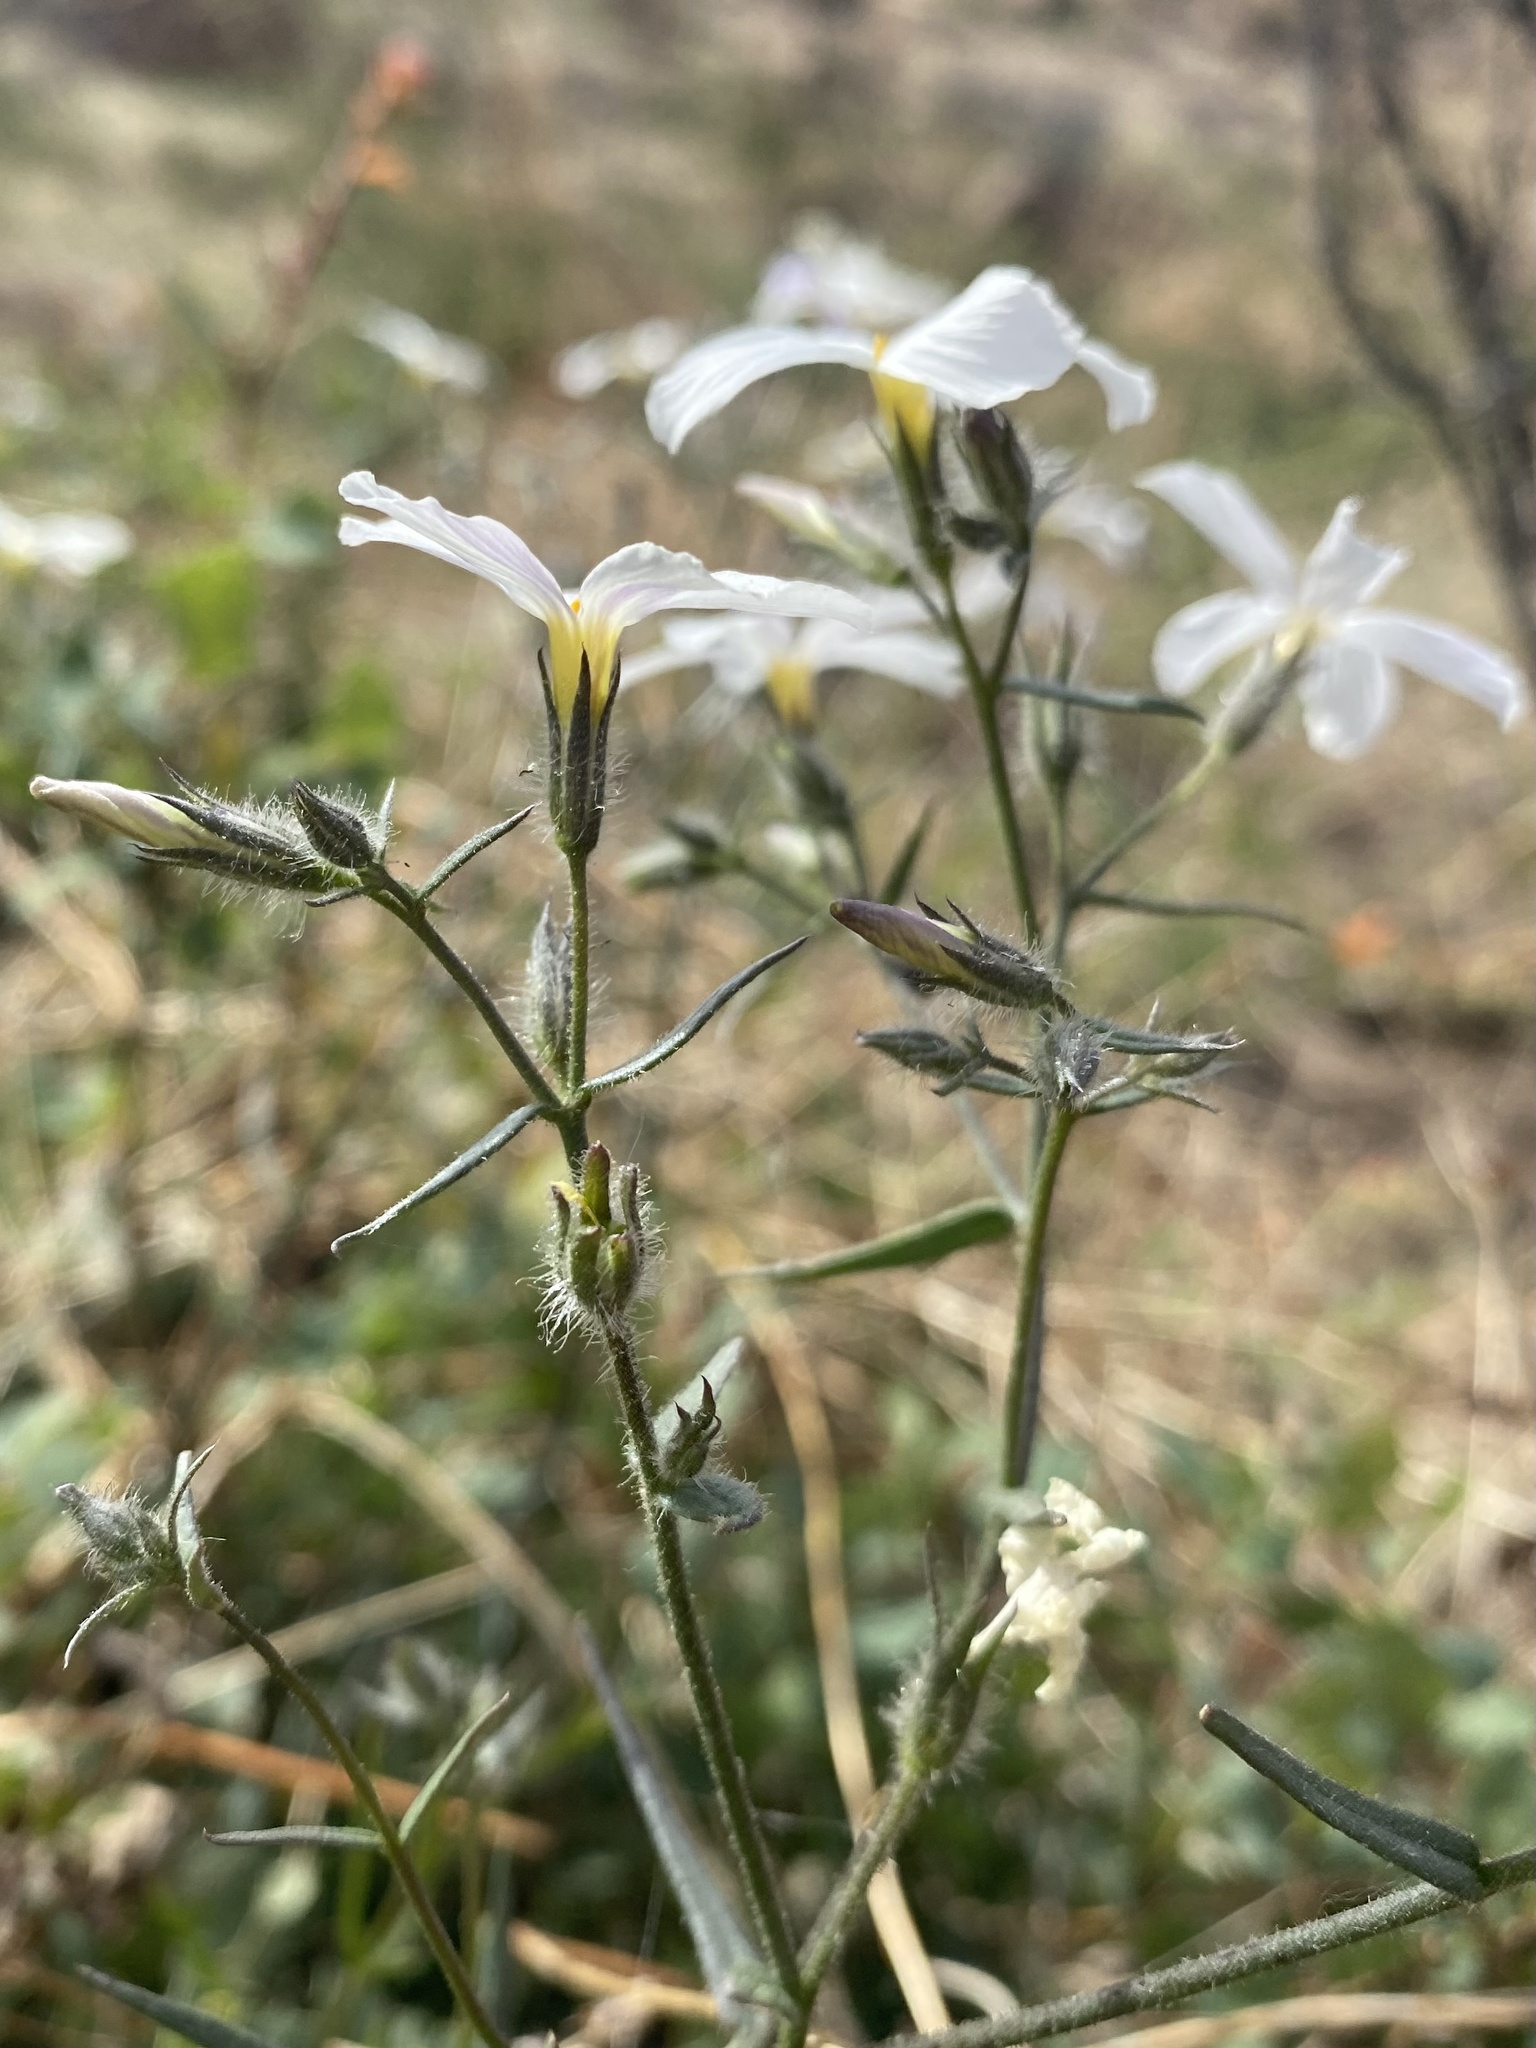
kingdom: Plantae
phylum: Tracheophyta
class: Magnoliopsida
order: Ericales
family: Polemoniaceae
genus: Phlox
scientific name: Phlox tenuifolia
